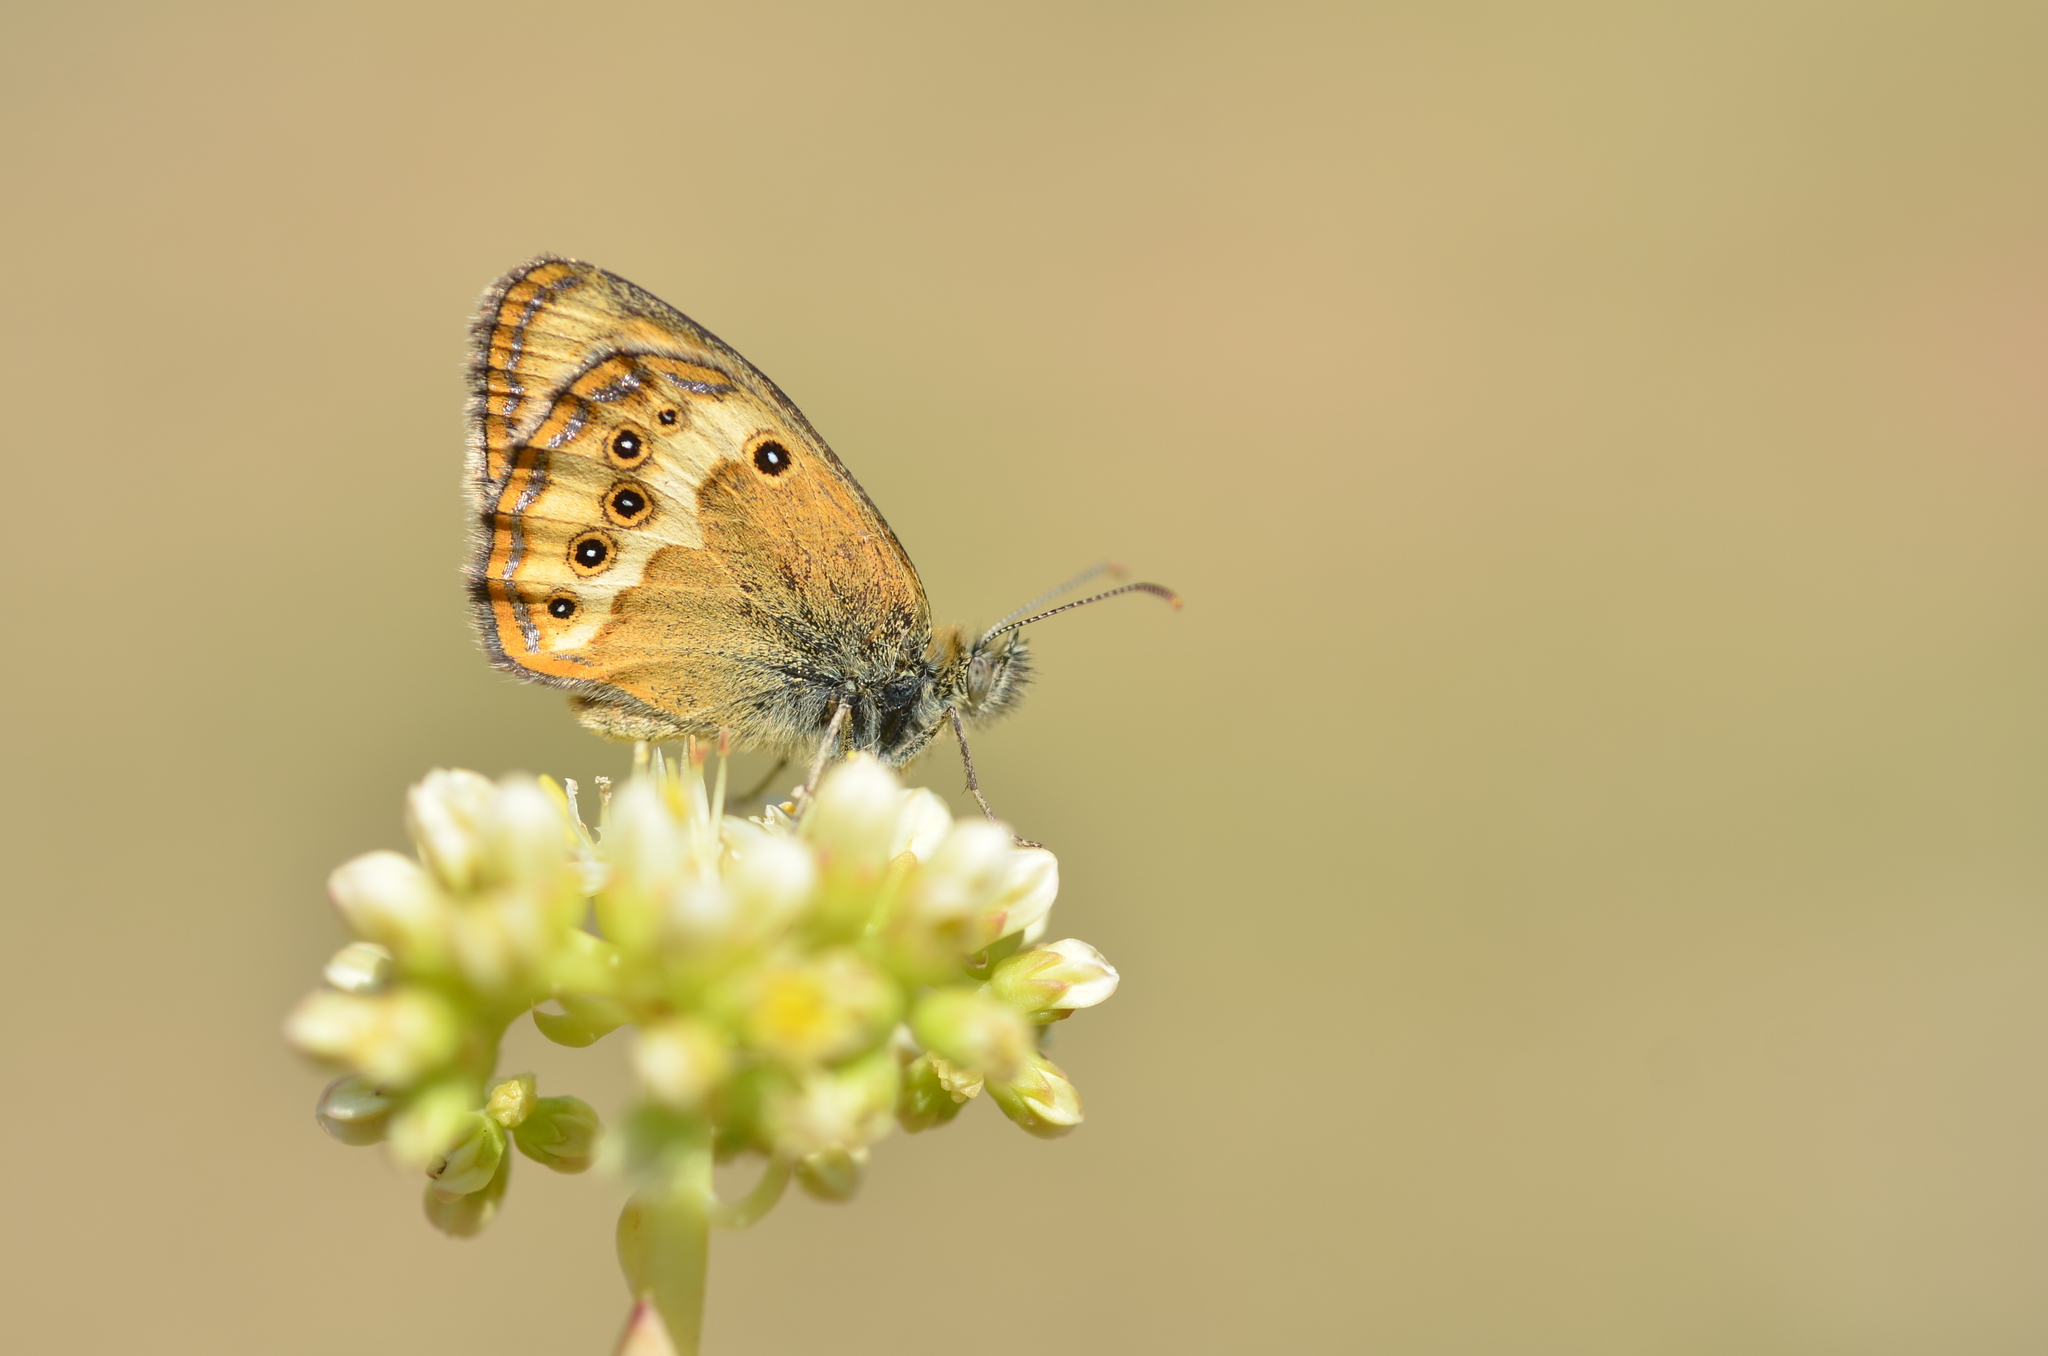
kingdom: Animalia
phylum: Arthropoda
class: Insecta
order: Lepidoptera
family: Nymphalidae
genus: Coenonympha
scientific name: Coenonympha dorus
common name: Dusky heath
